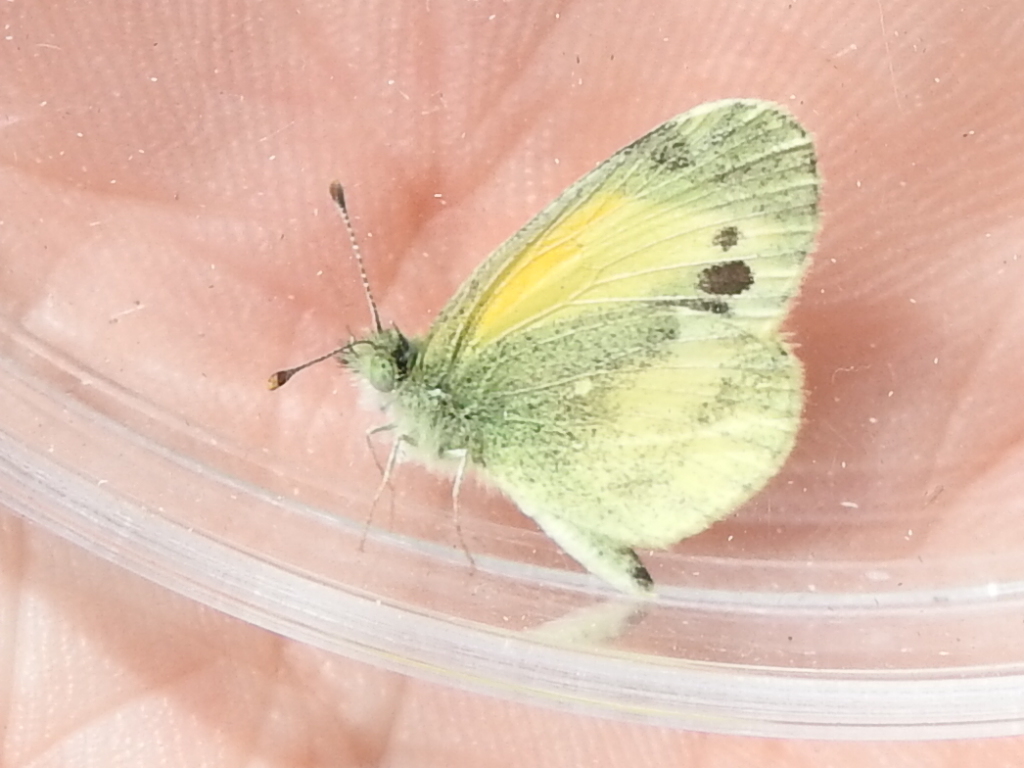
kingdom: Animalia
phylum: Arthropoda
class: Insecta
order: Lepidoptera
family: Pieridae
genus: Nathalis
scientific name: Nathalis iole
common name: Dainty sulphur
